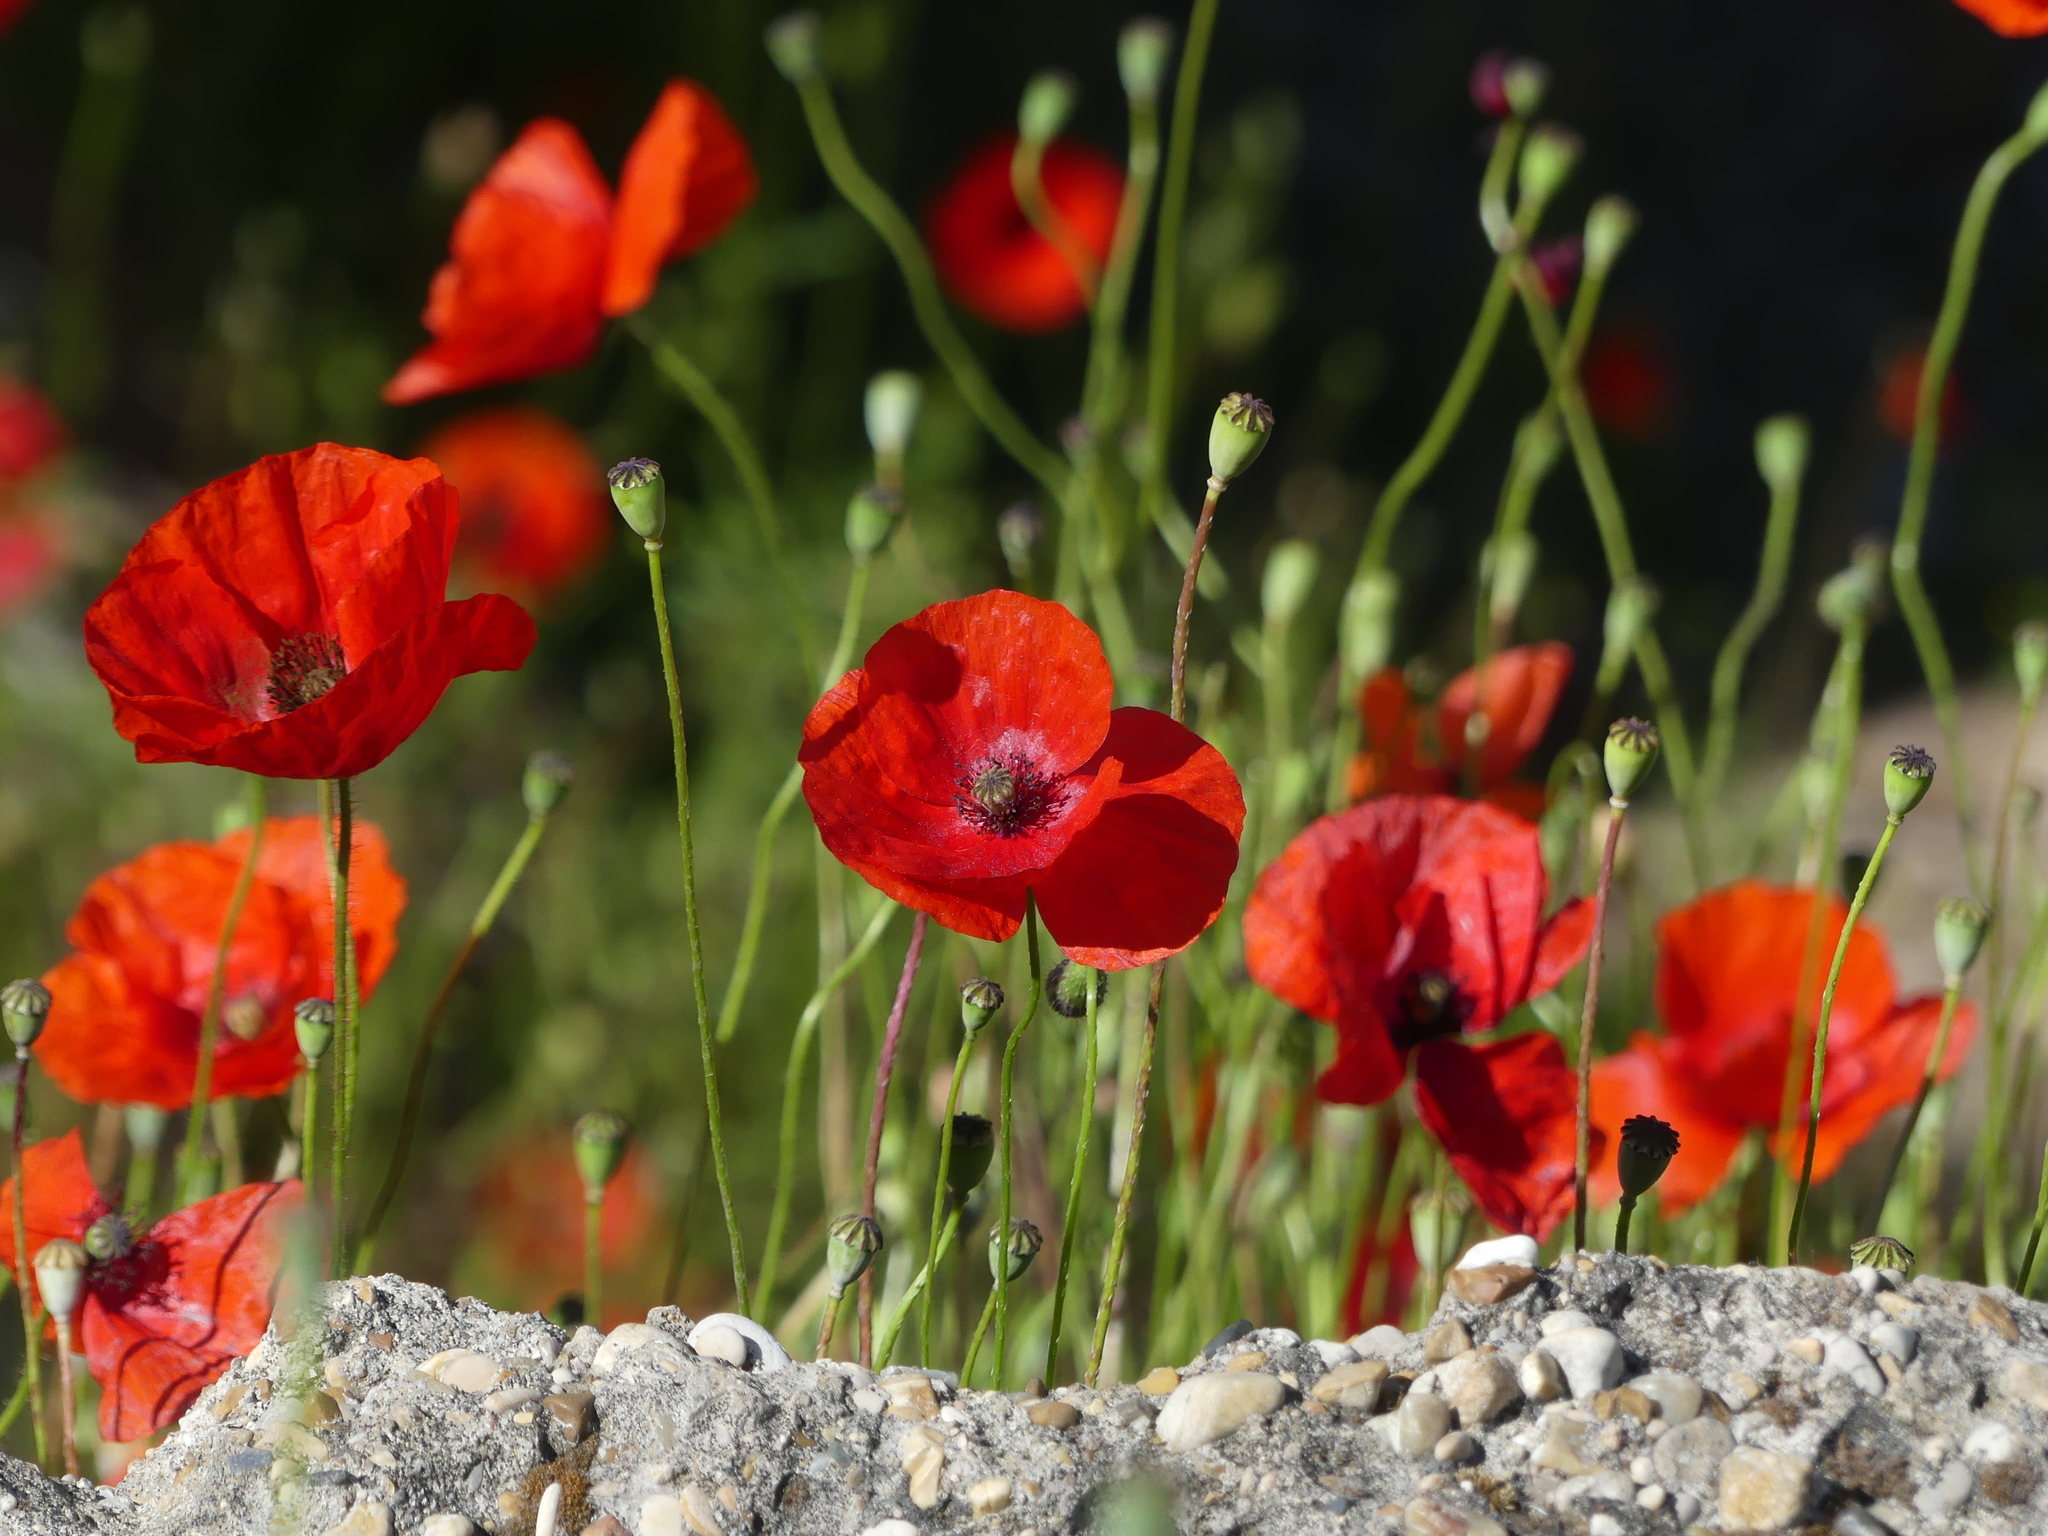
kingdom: Plantae
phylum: Tracheophyta
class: Magnoliopsida
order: Ranunculales
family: Papaveraceae
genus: Papaver
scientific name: Papaver rhoeas
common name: Corn poppy
